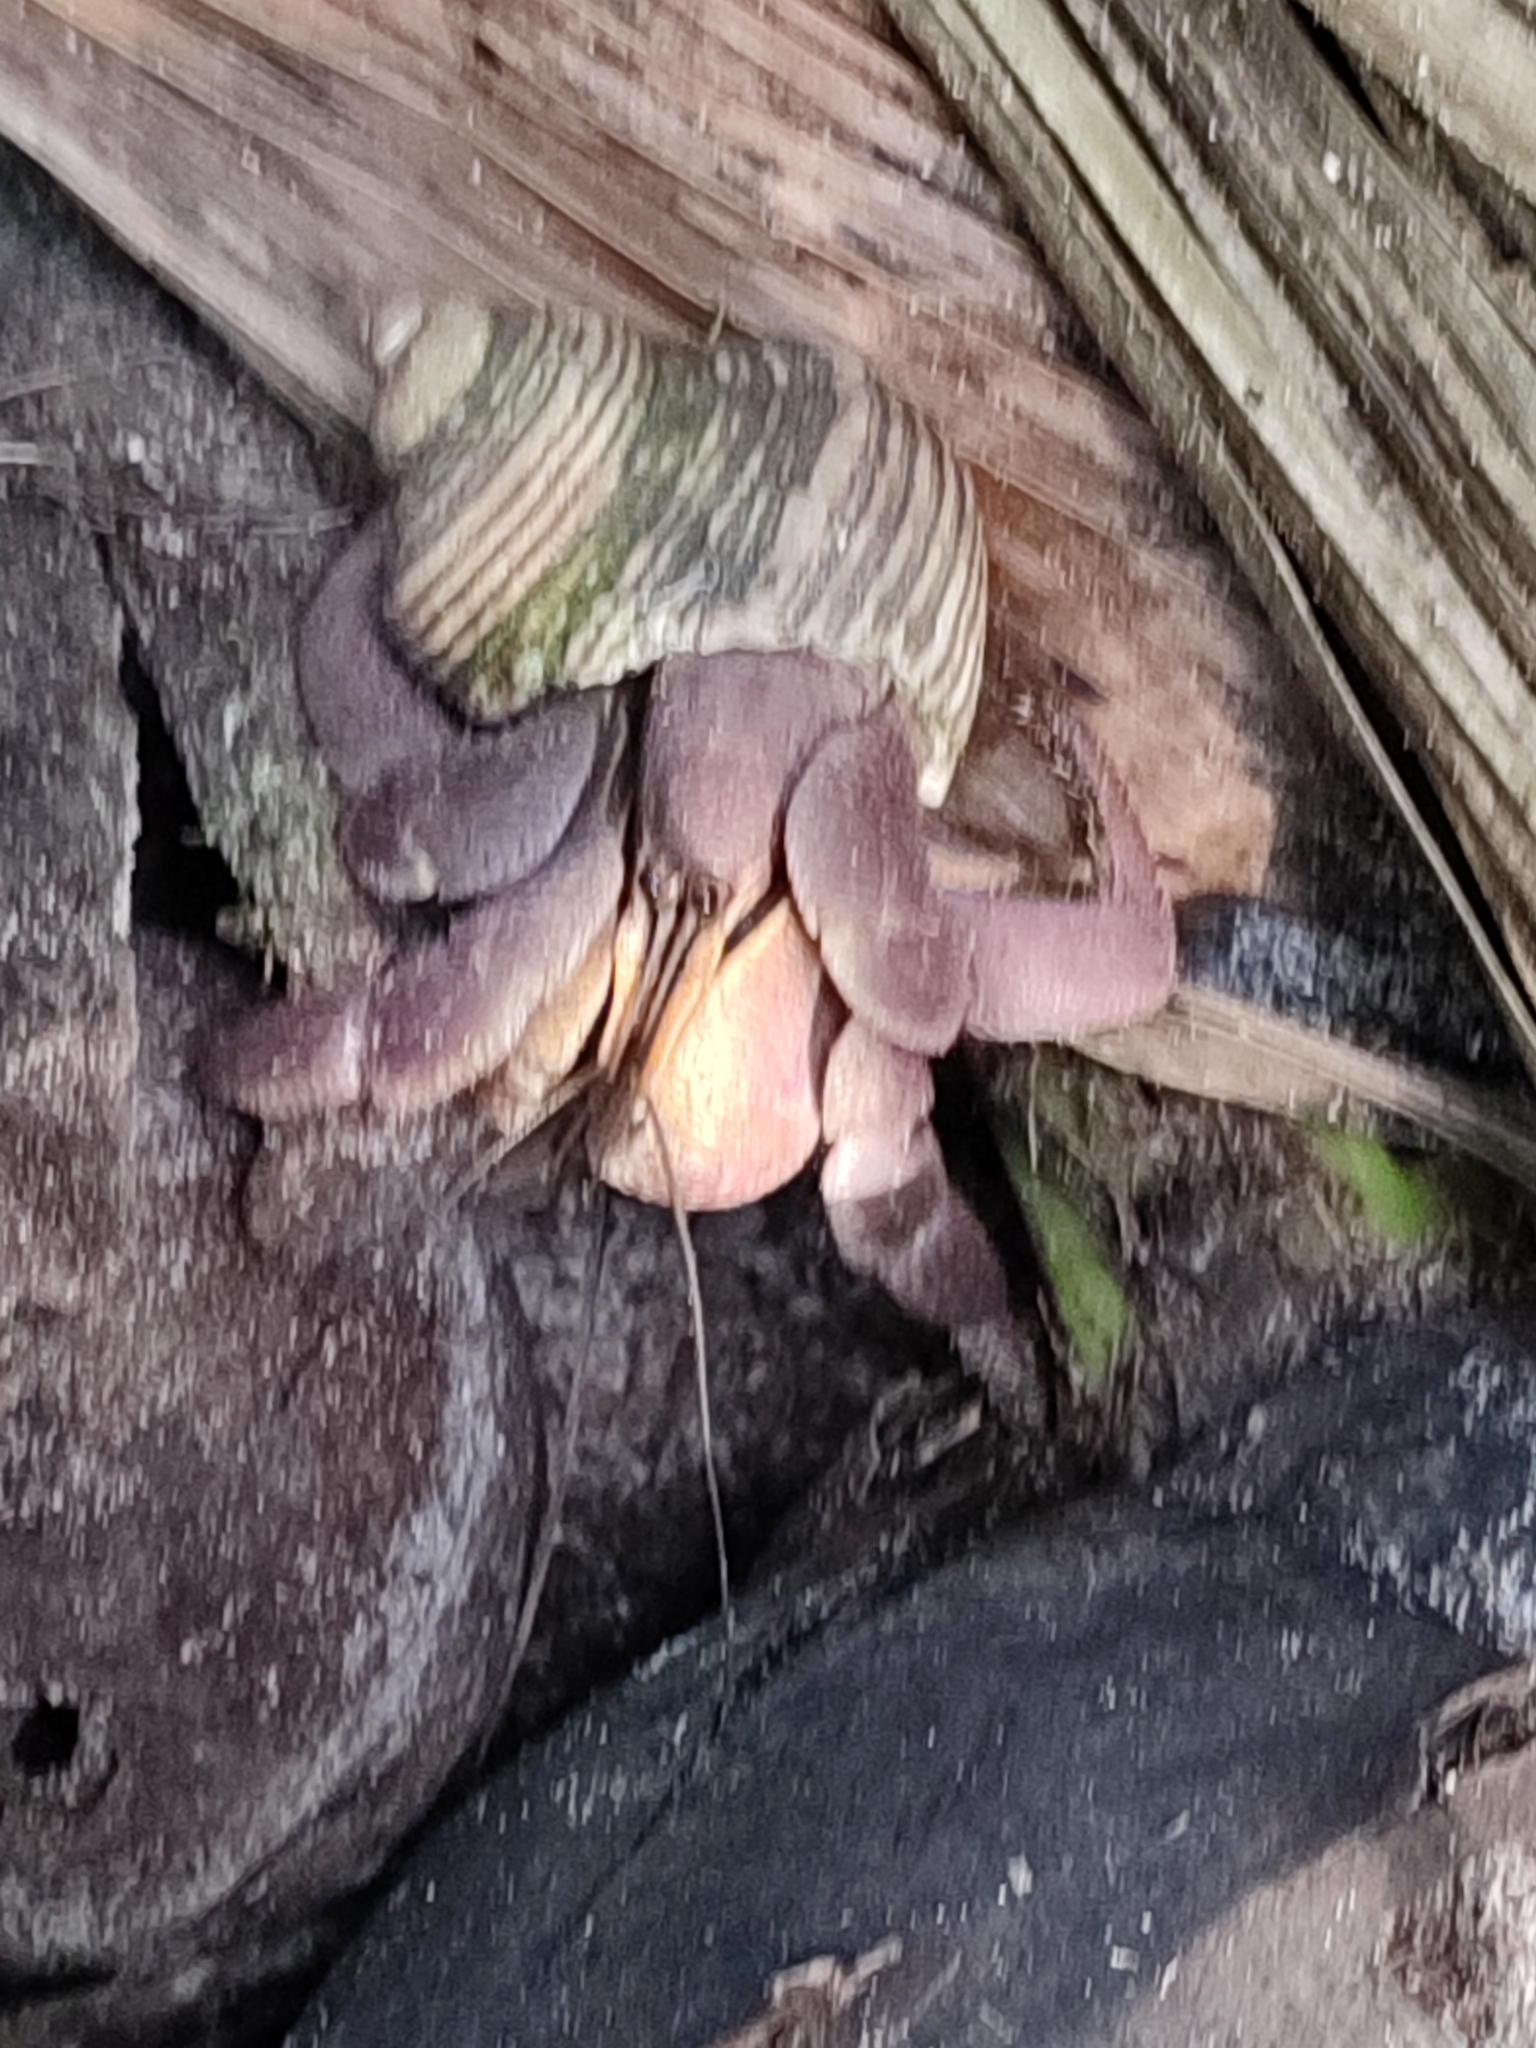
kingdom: Animalia
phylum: Arthropoda
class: Malacostraca
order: Decapoda
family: Coenobitidae
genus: Coenobita
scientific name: Coenobita brevimanus
